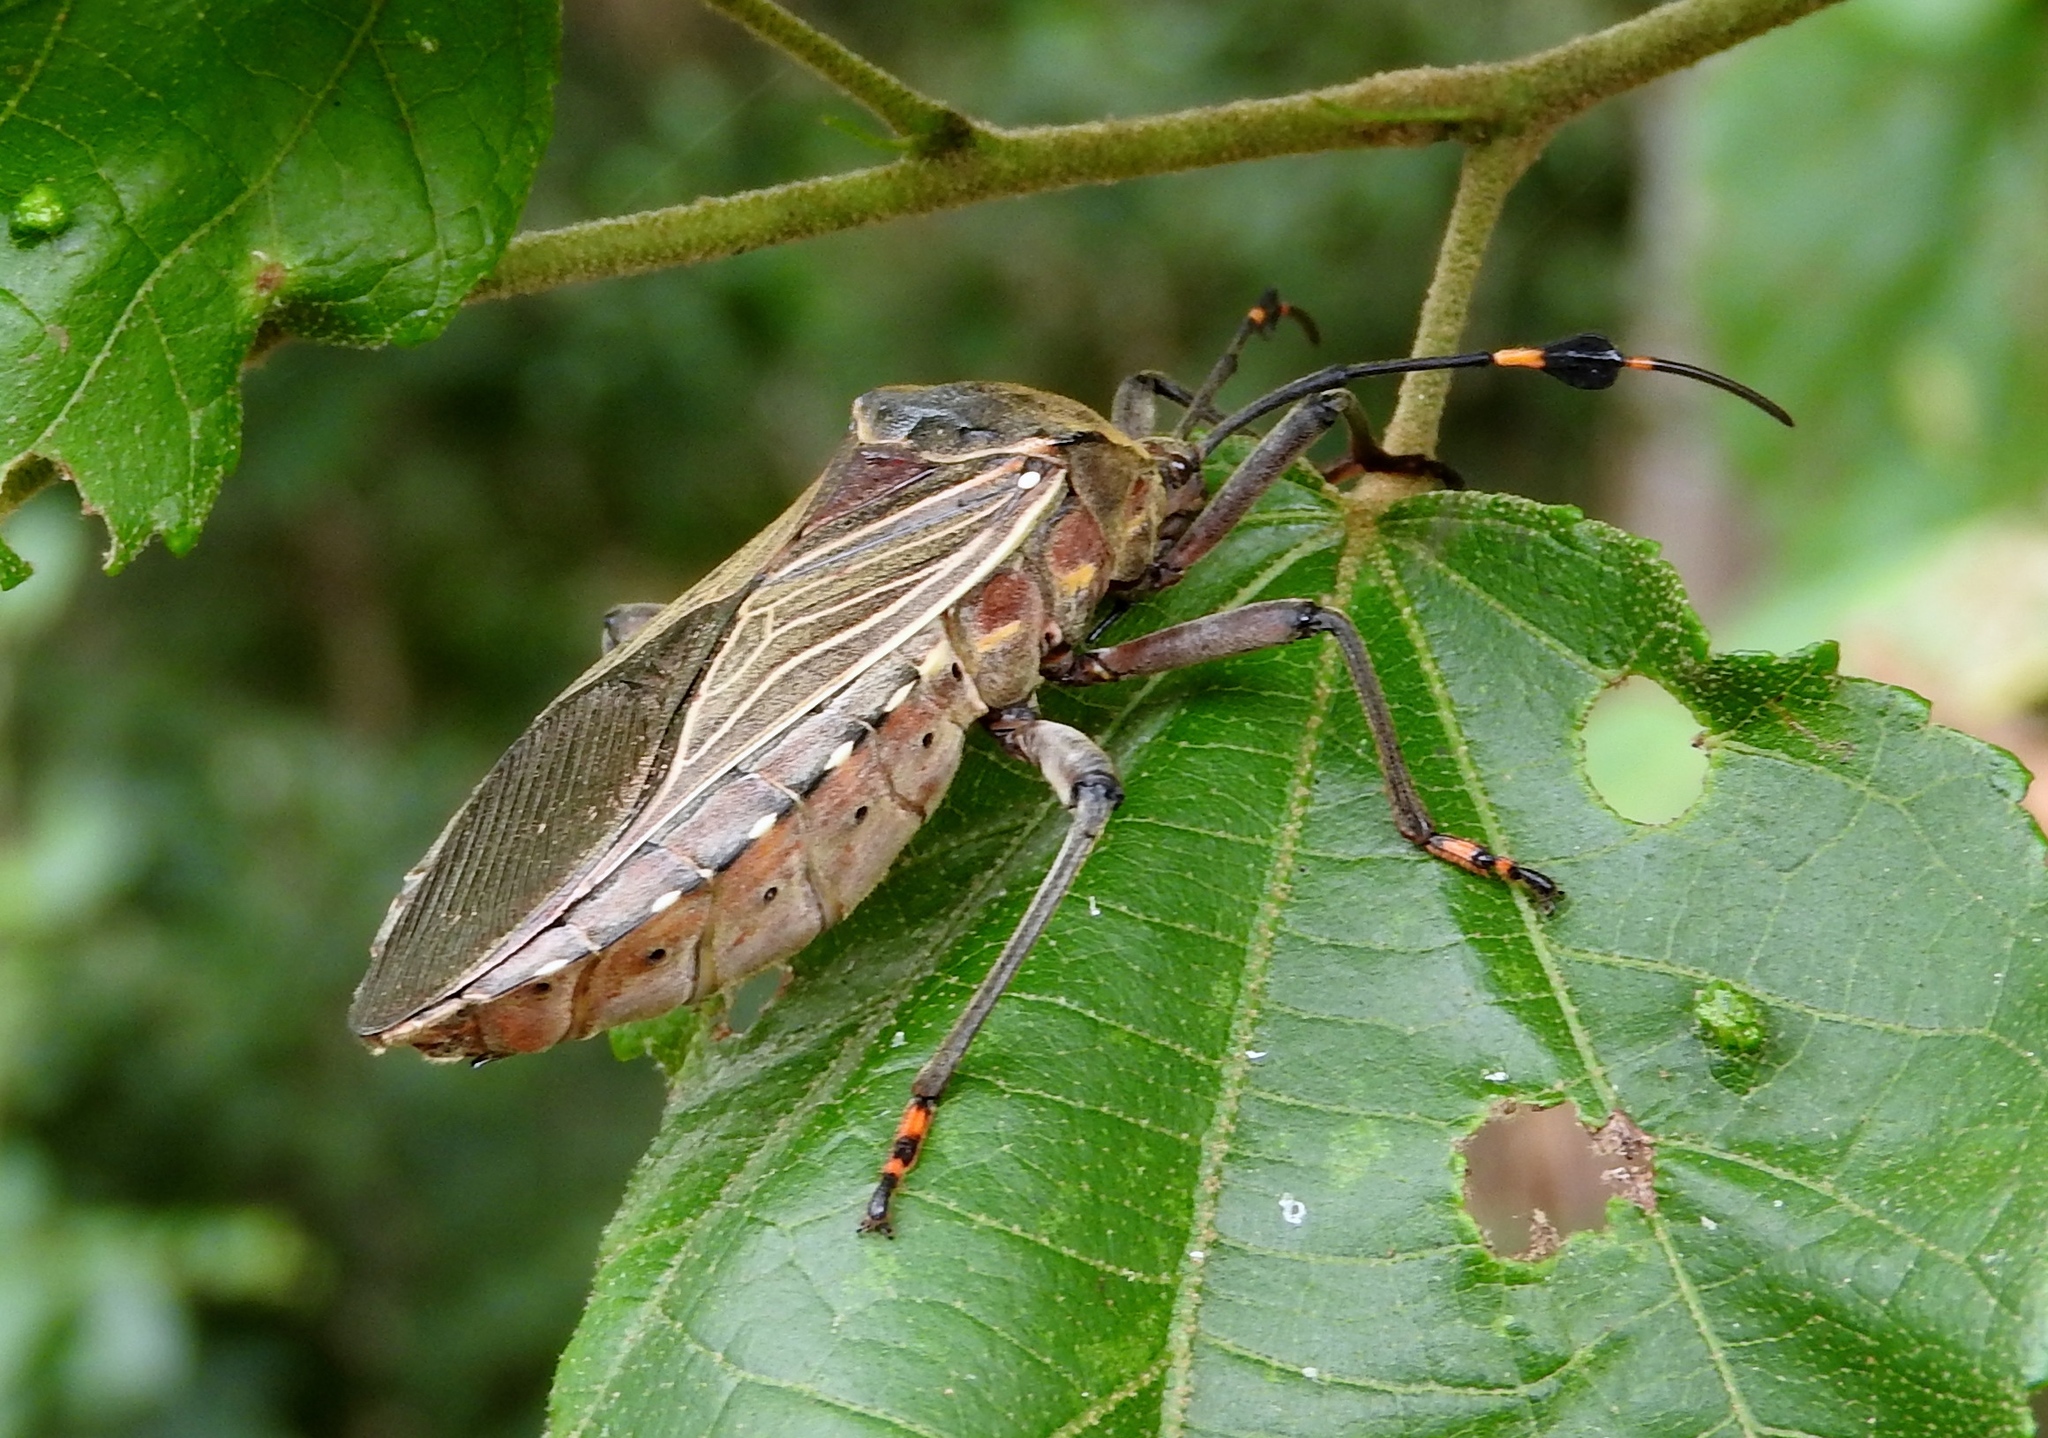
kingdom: Animalia
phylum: Arthropoda
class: Insecta
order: Hemiptera
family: Coreidae
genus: Pachylis
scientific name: Pachylis nervosus
